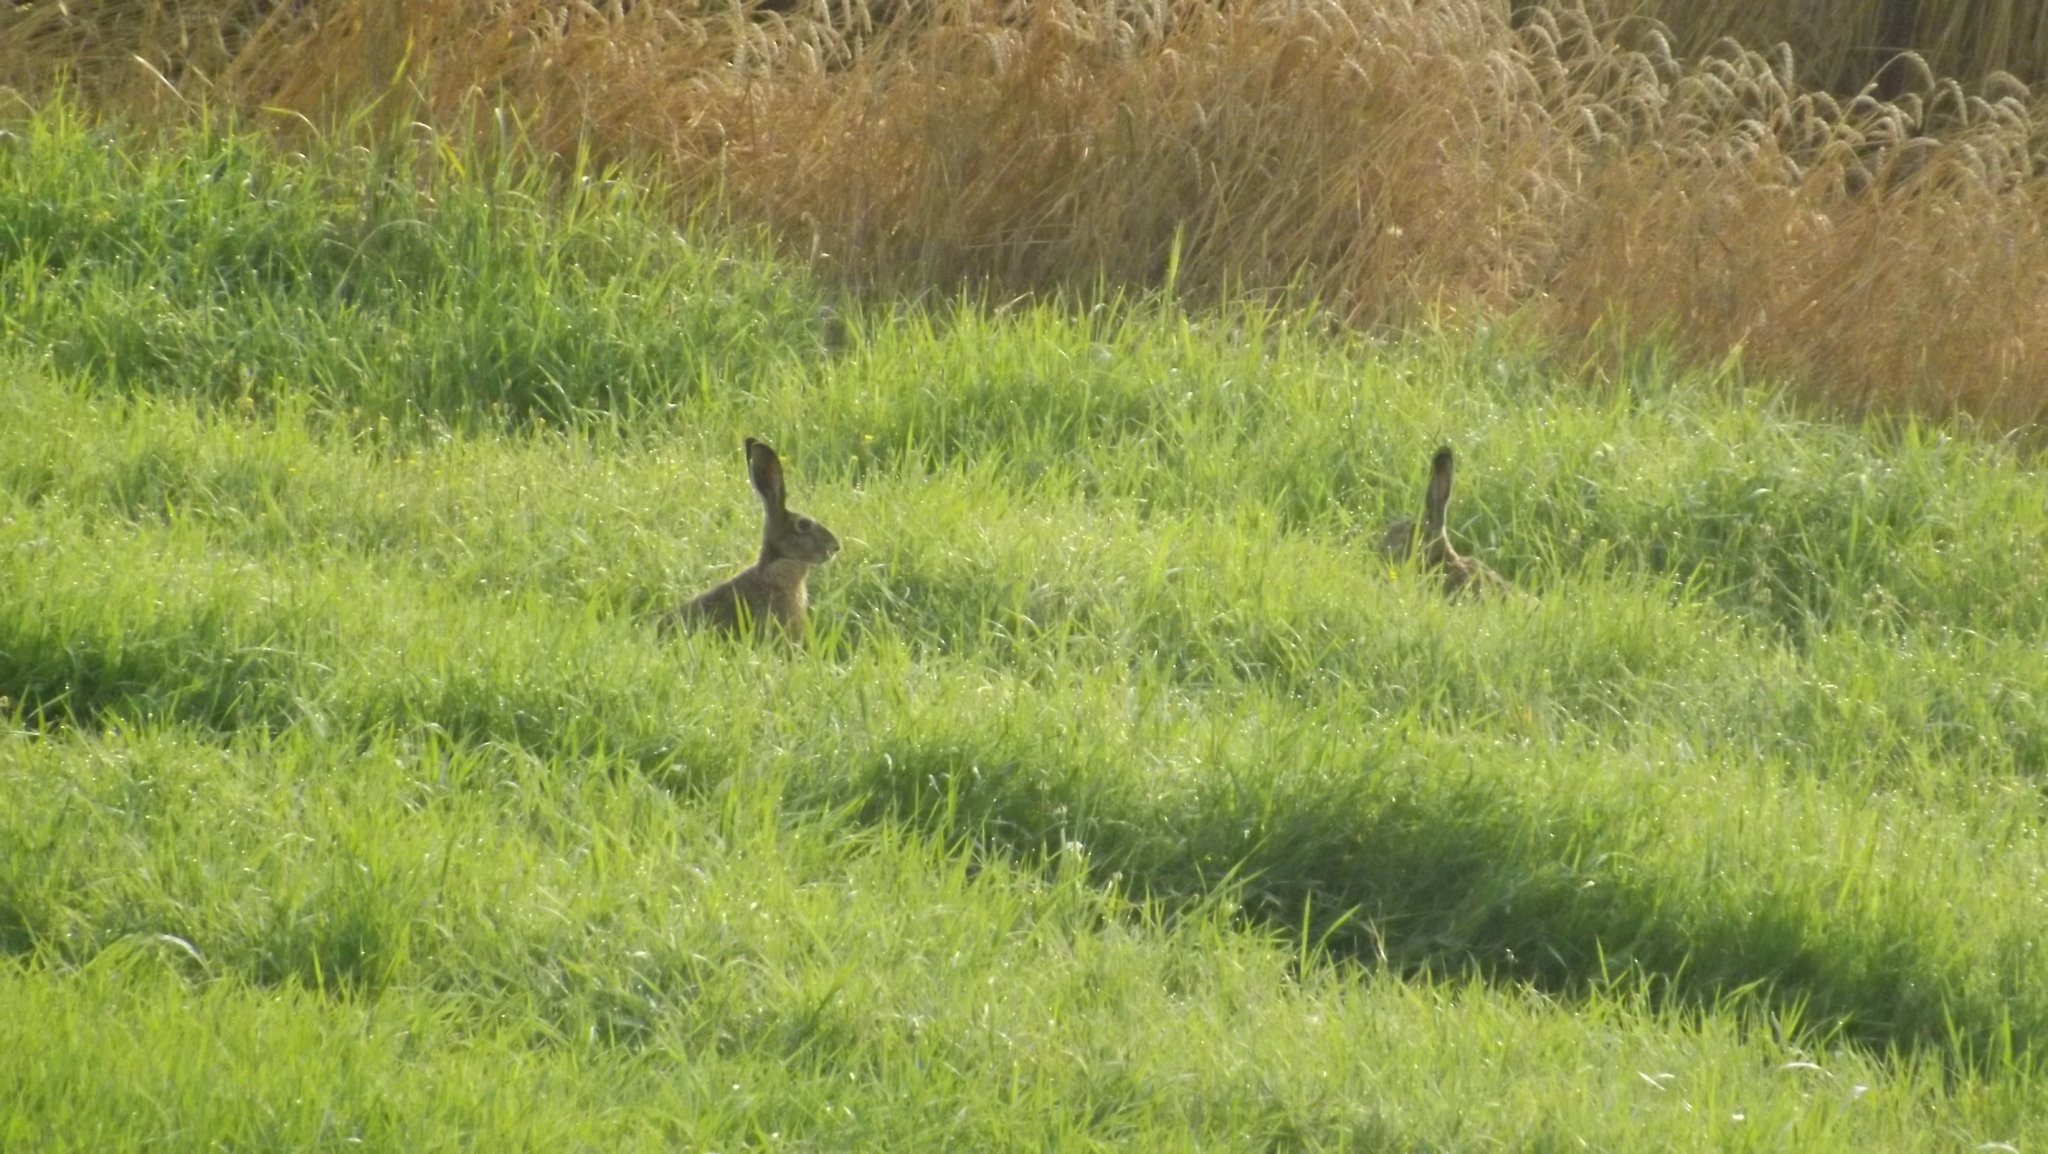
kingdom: Animalia
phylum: Chordata
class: Mammalia
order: Lagomorpha
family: Leporidae
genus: Lepus
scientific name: Lepus europaeus
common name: European hare
